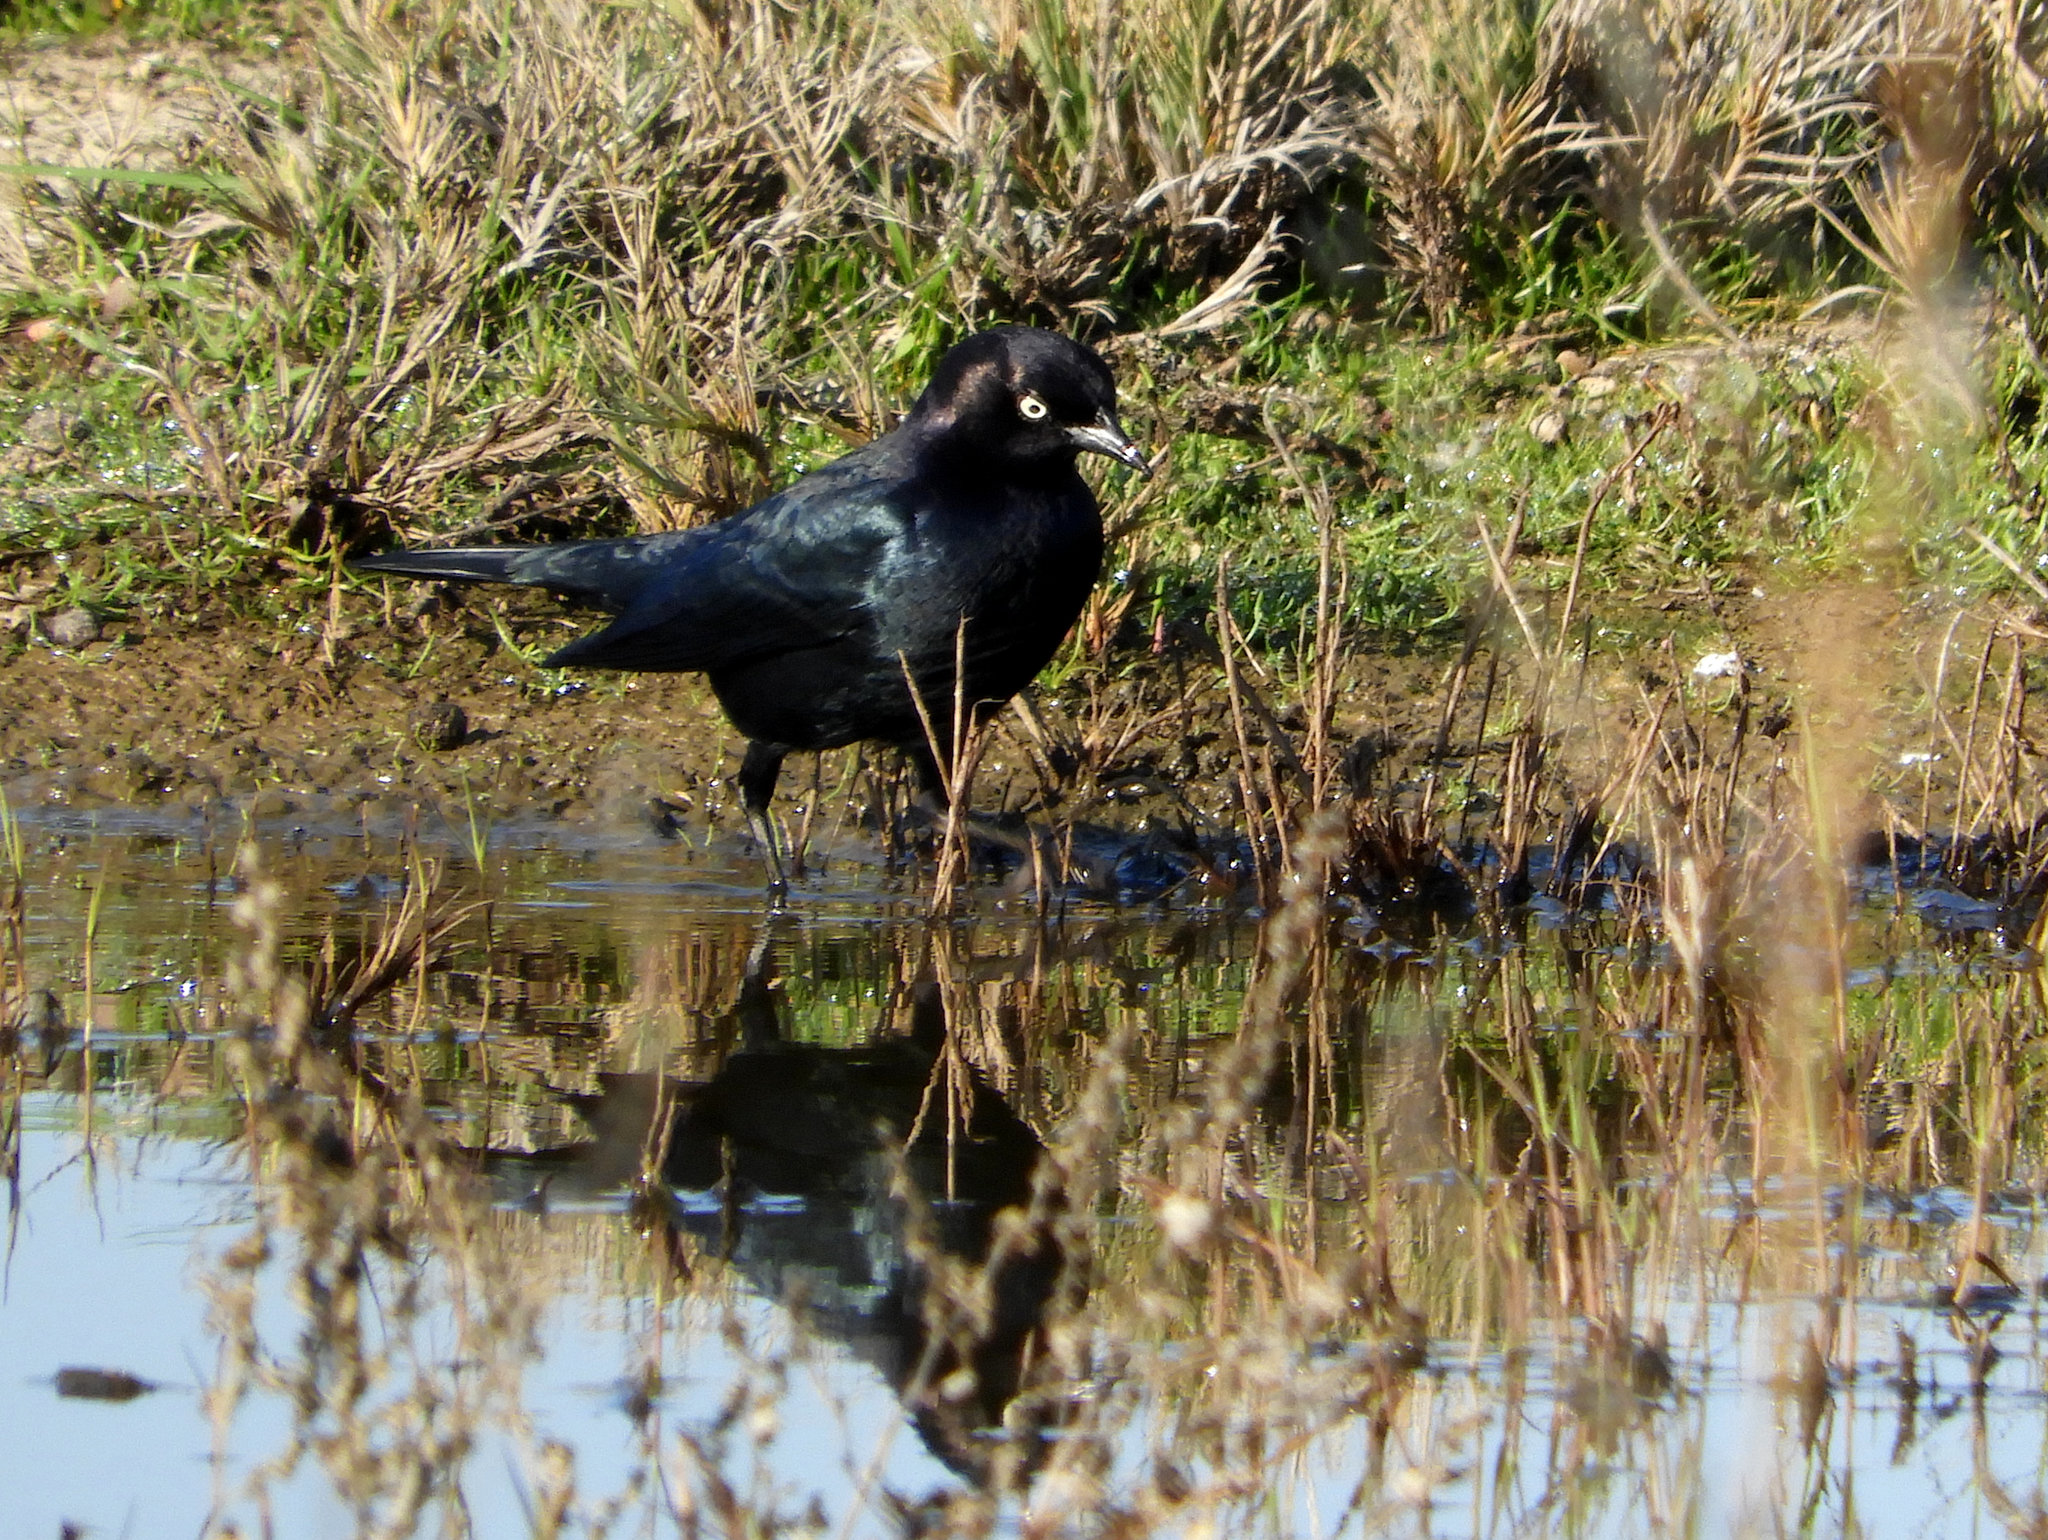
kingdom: Animalia
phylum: Chordata
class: Aves
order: Passeriformes
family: Icteridae
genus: Euphagus
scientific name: Euphagus cyanocephalus
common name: Brewer's blackbird
